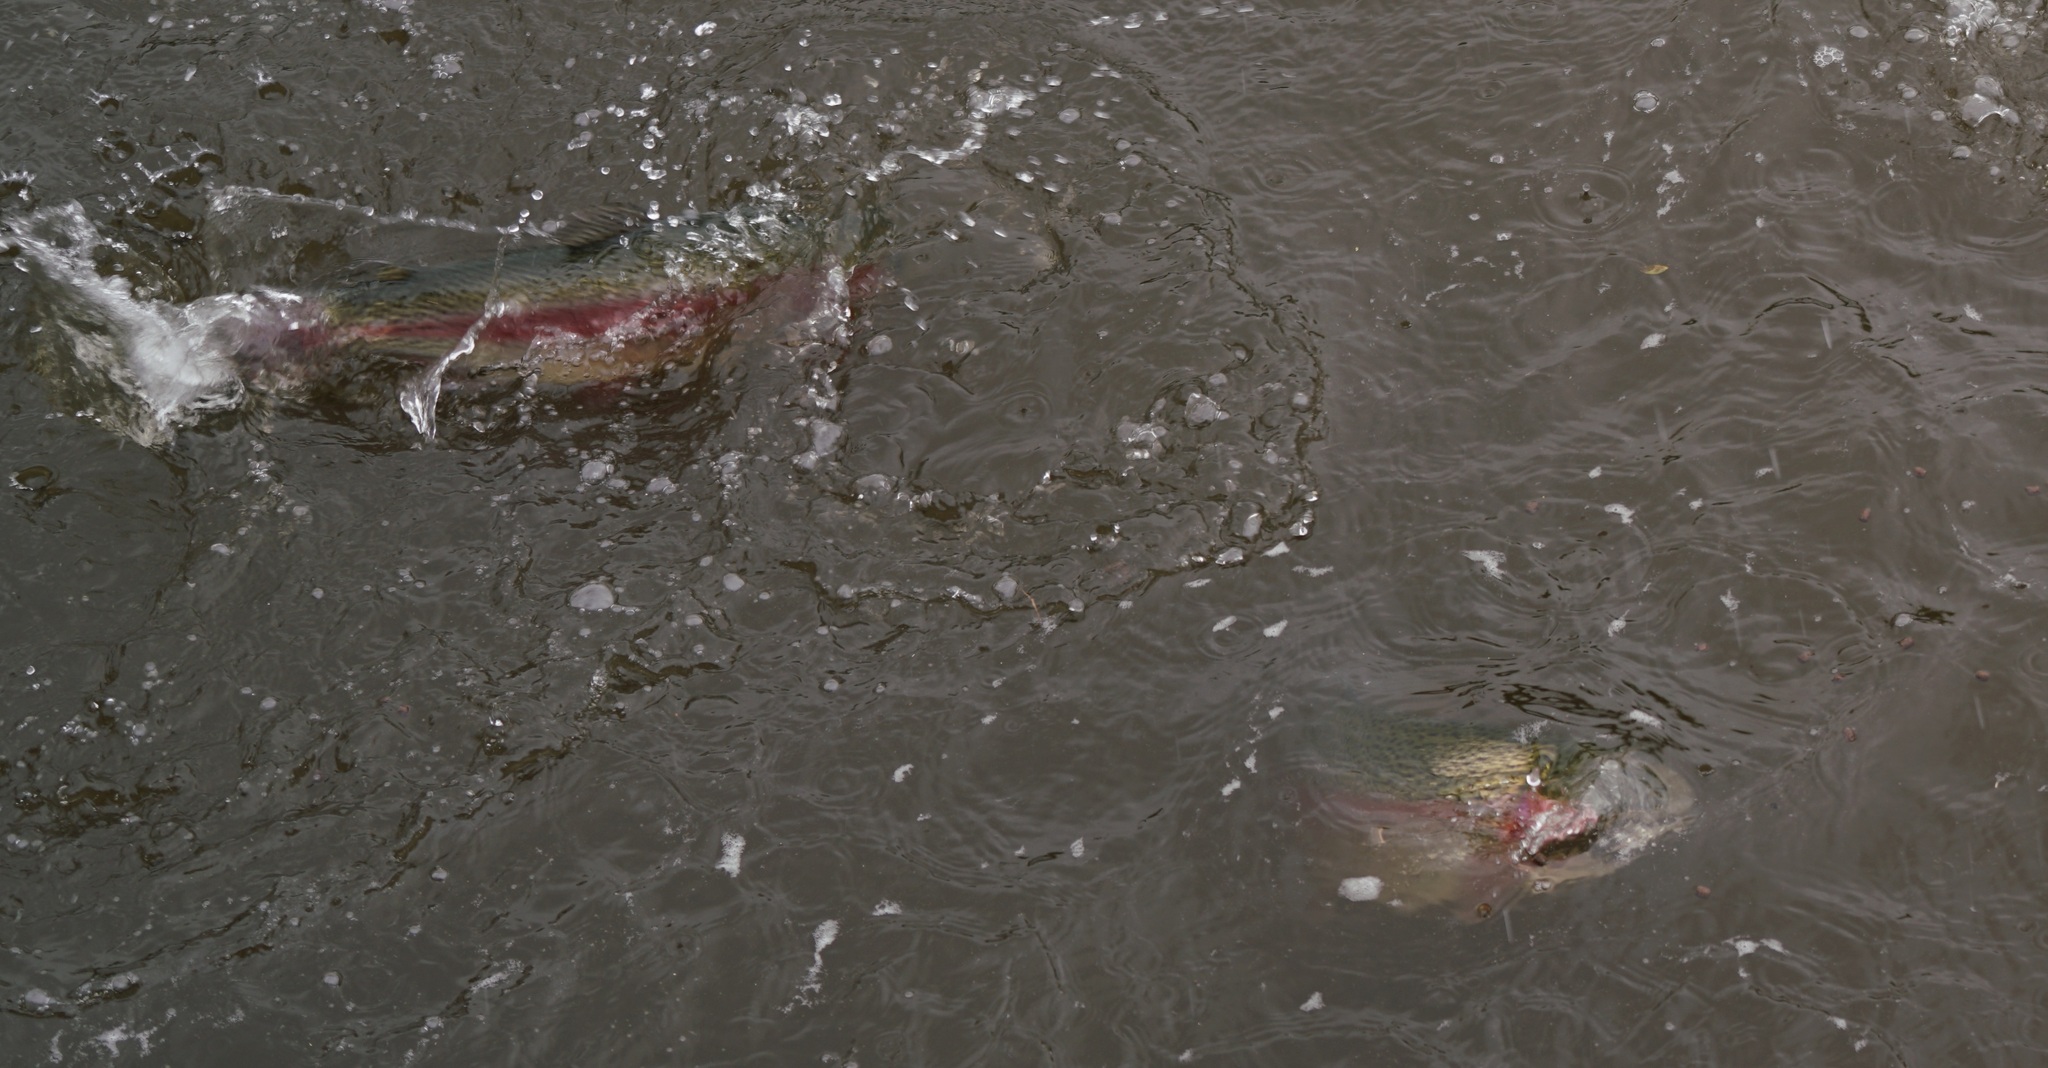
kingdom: Animalia
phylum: Chordata
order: Salmoniformes
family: Salmonidae
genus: Oncorhynchus
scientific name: Oncorhynchus mykiss
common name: Rainbow trout
